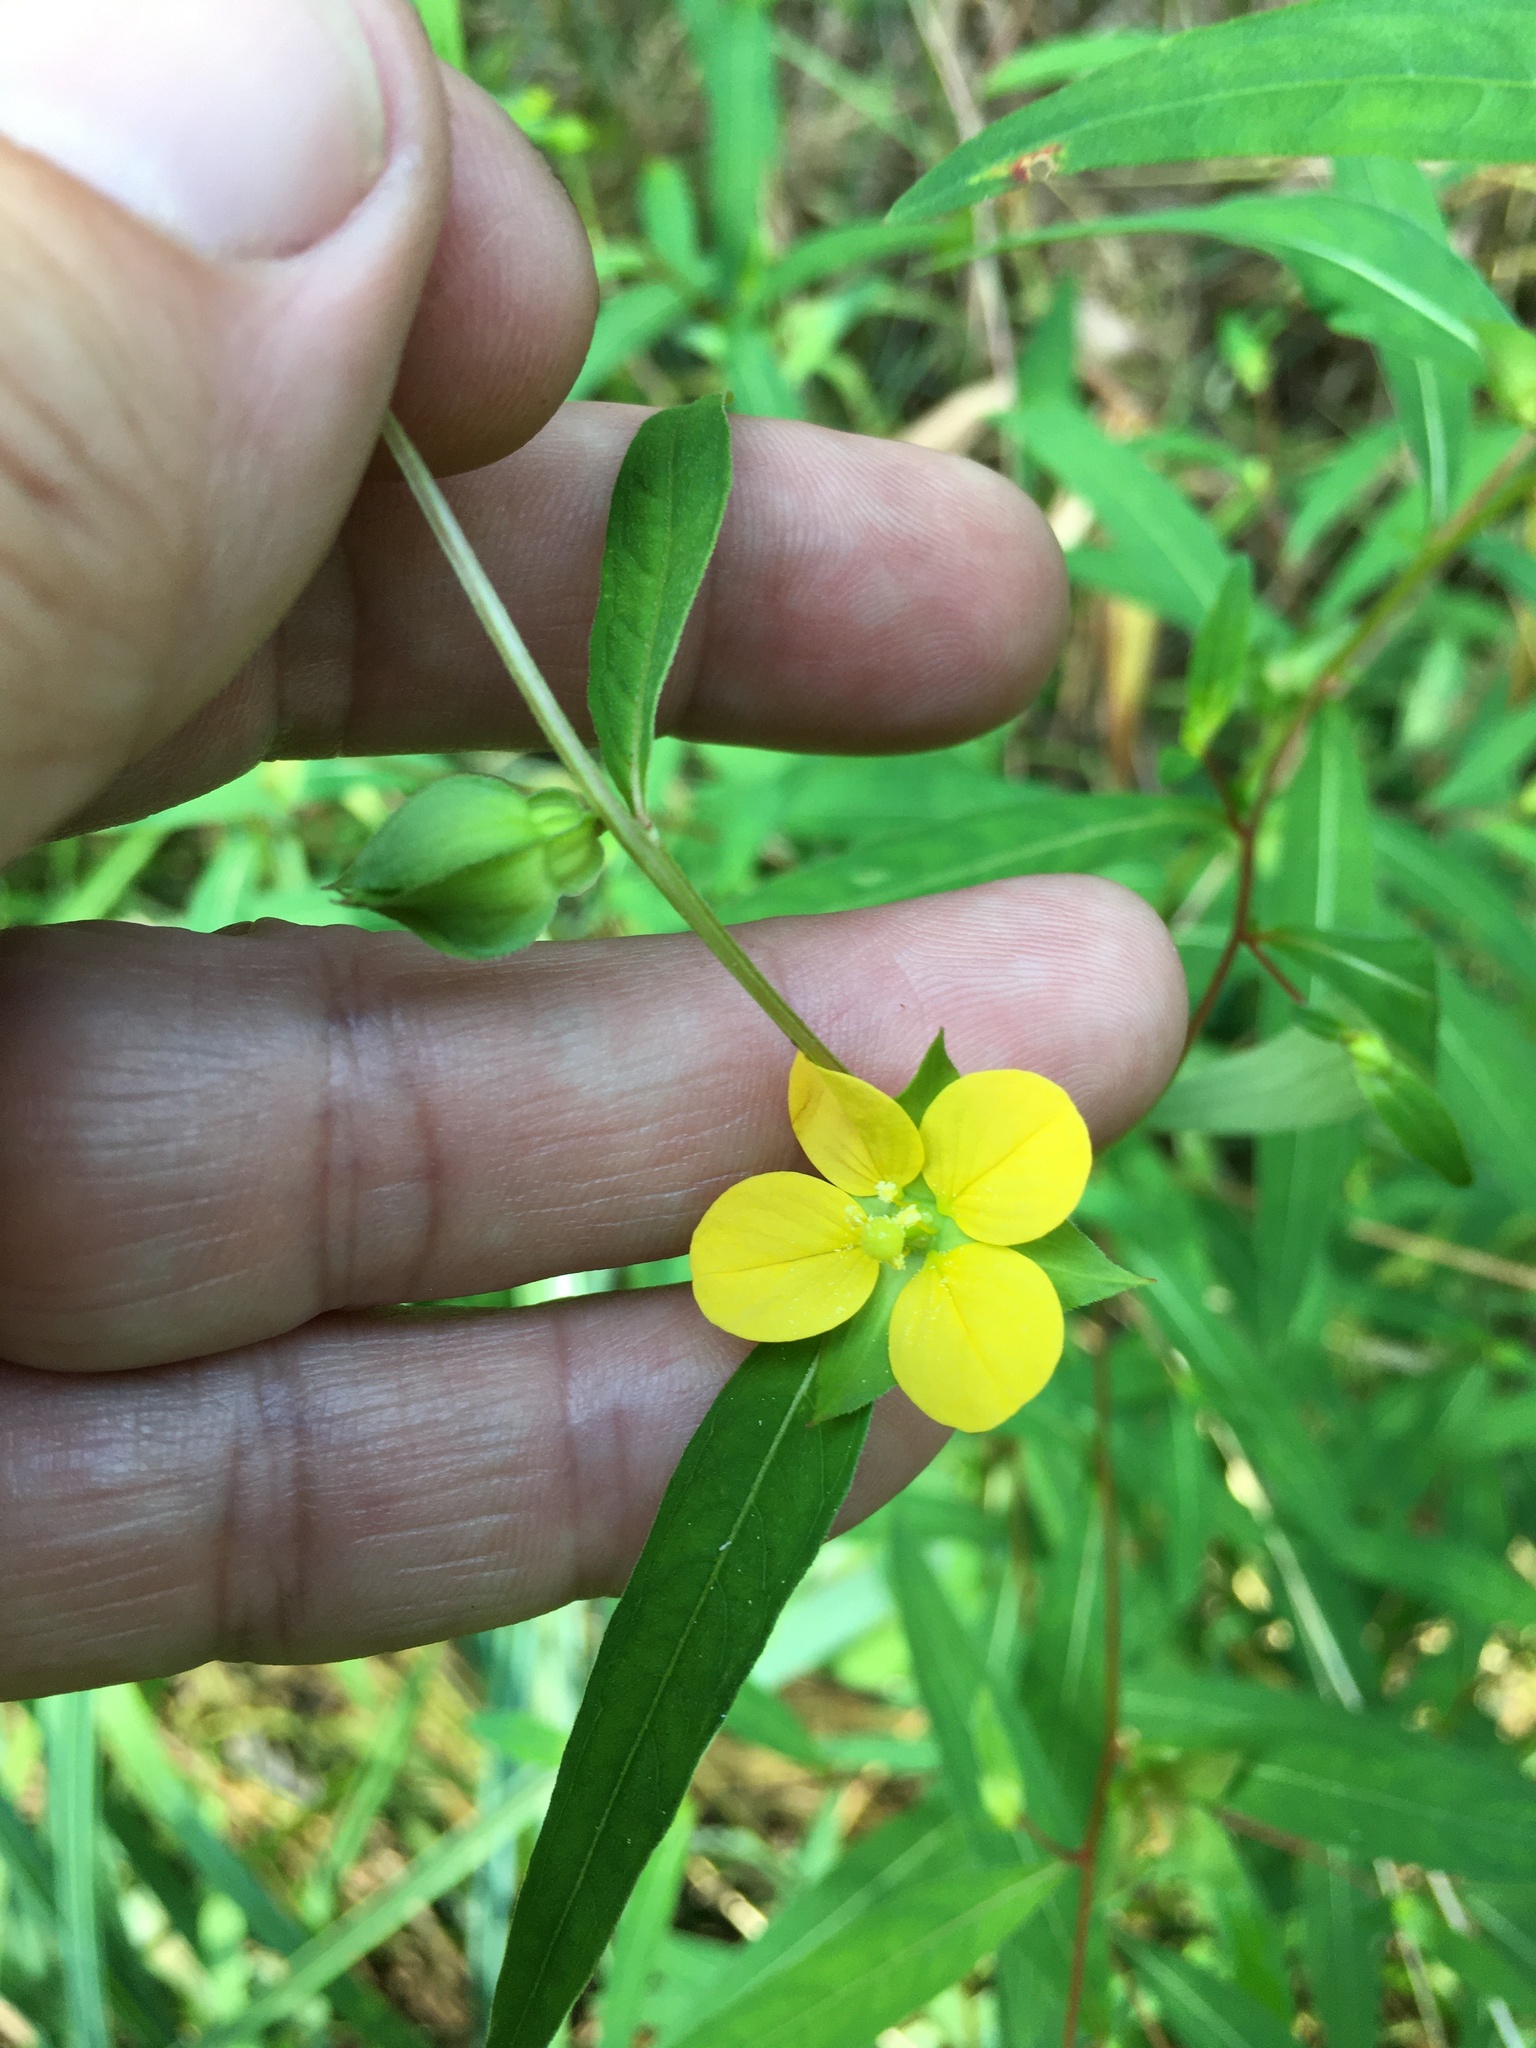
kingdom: Plantae
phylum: Tracheophyta
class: Magnoliopsida
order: Myrtales
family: Onagraceae
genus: Ludwigia
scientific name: Ludwigia alternifolia
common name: Rattlebox
